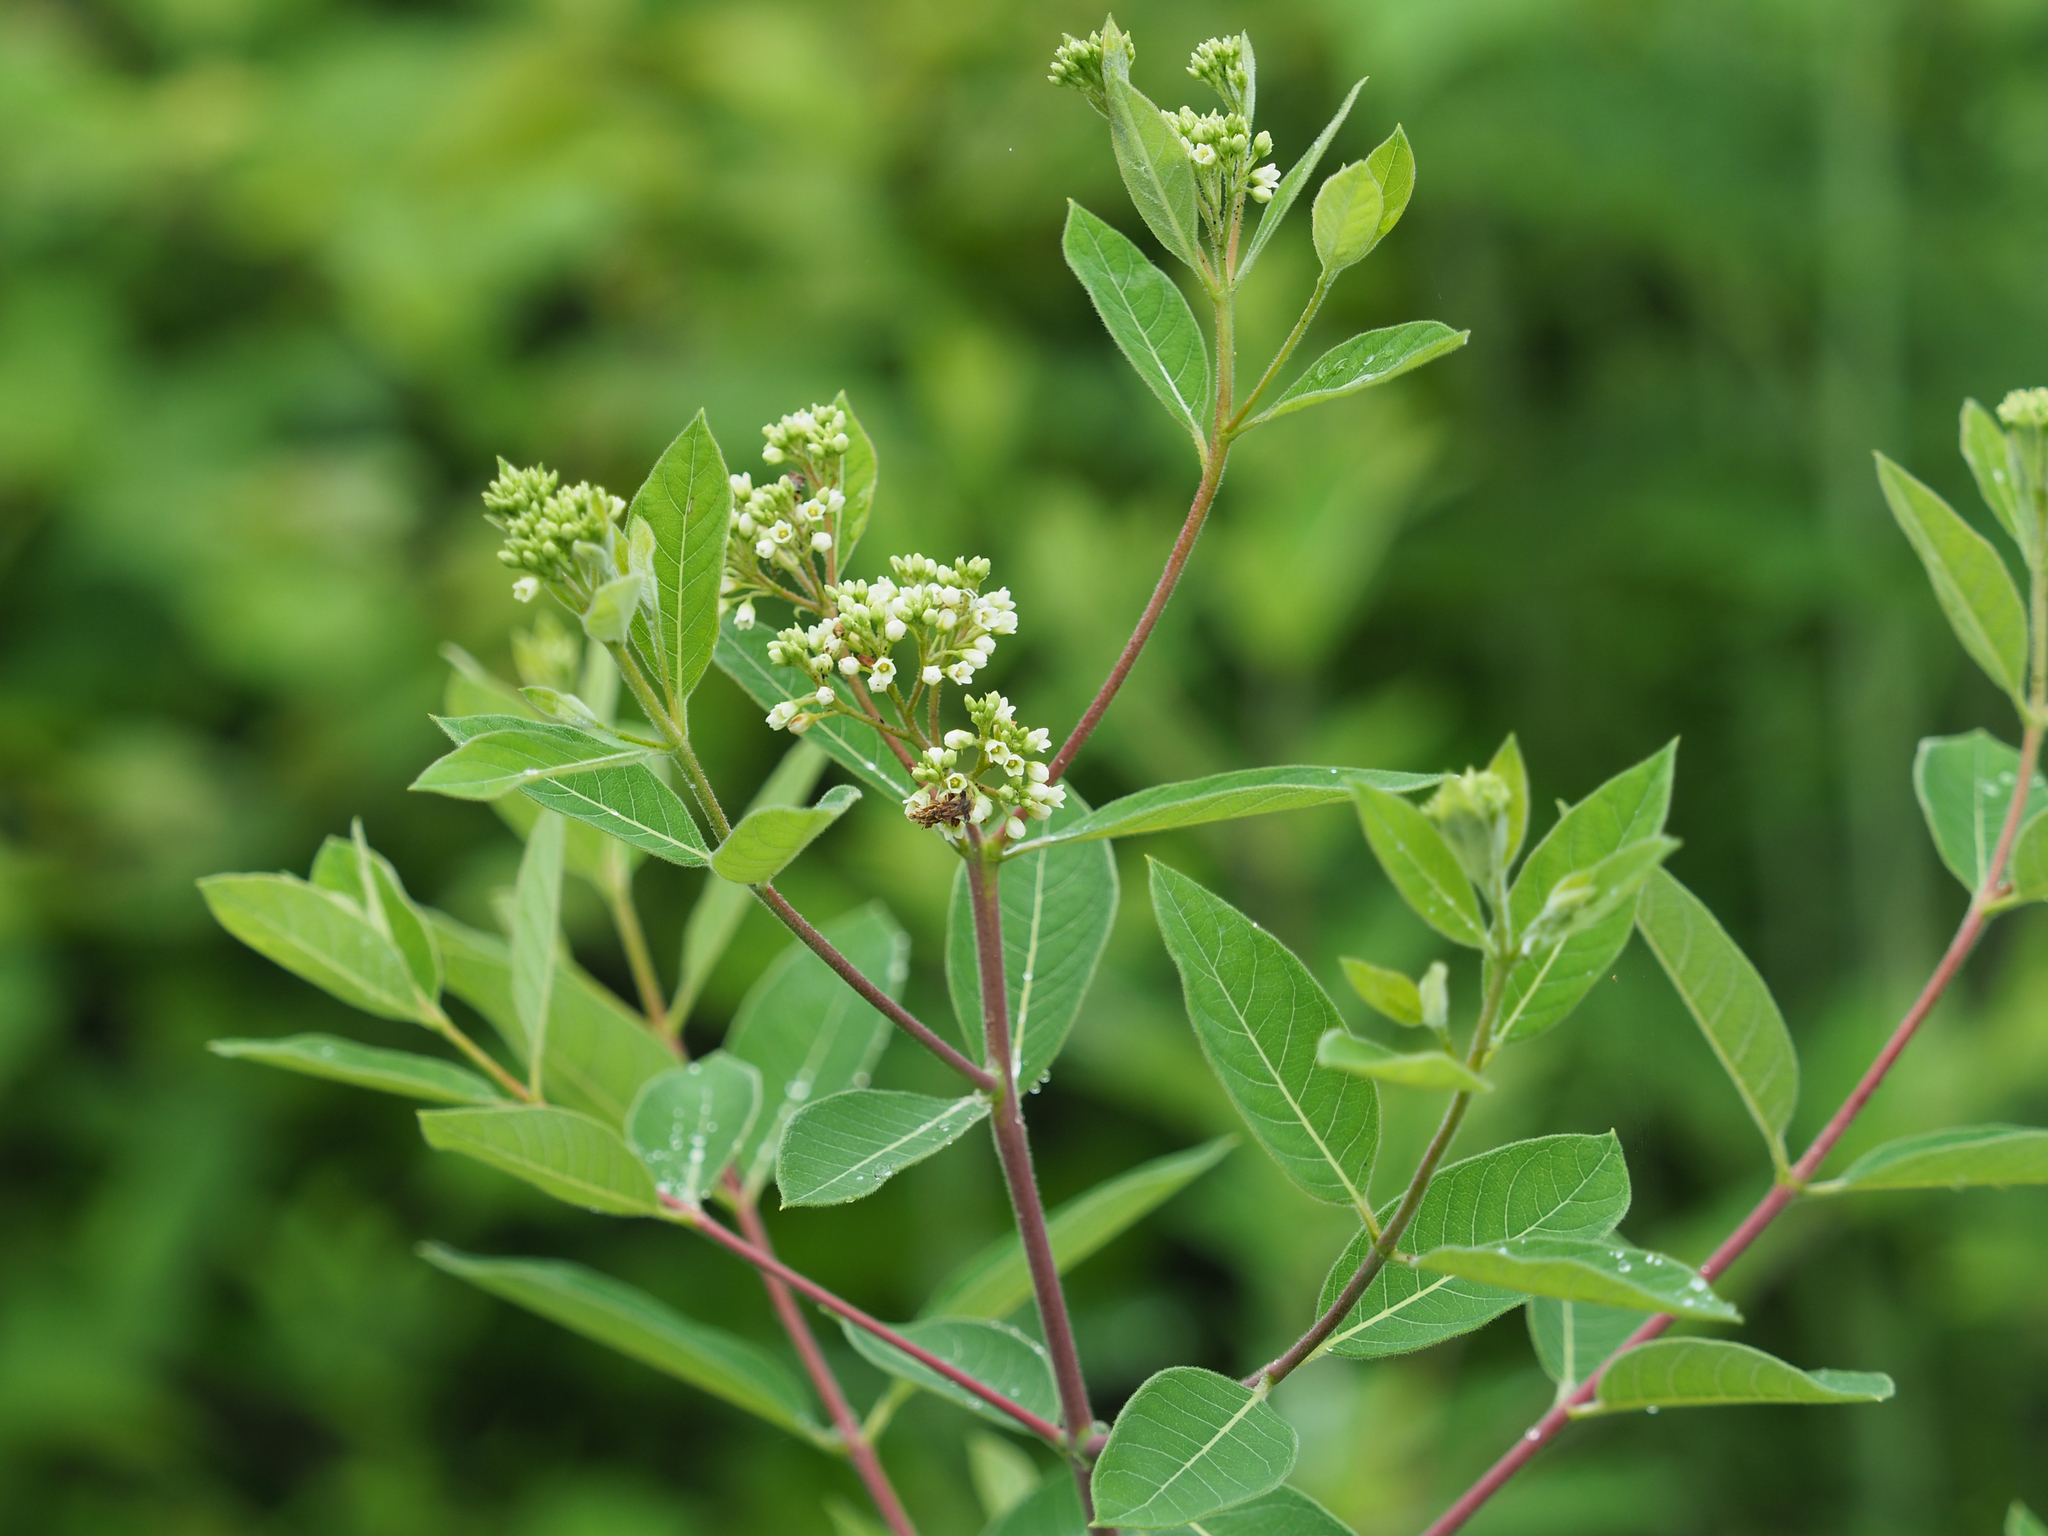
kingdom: Plantae
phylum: Tracheophyta
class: Magnoliopsida
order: Gentianales
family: Apocynaceae
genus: Apocynum
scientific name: Apocynum cannabinum
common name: Hemp dogbane
